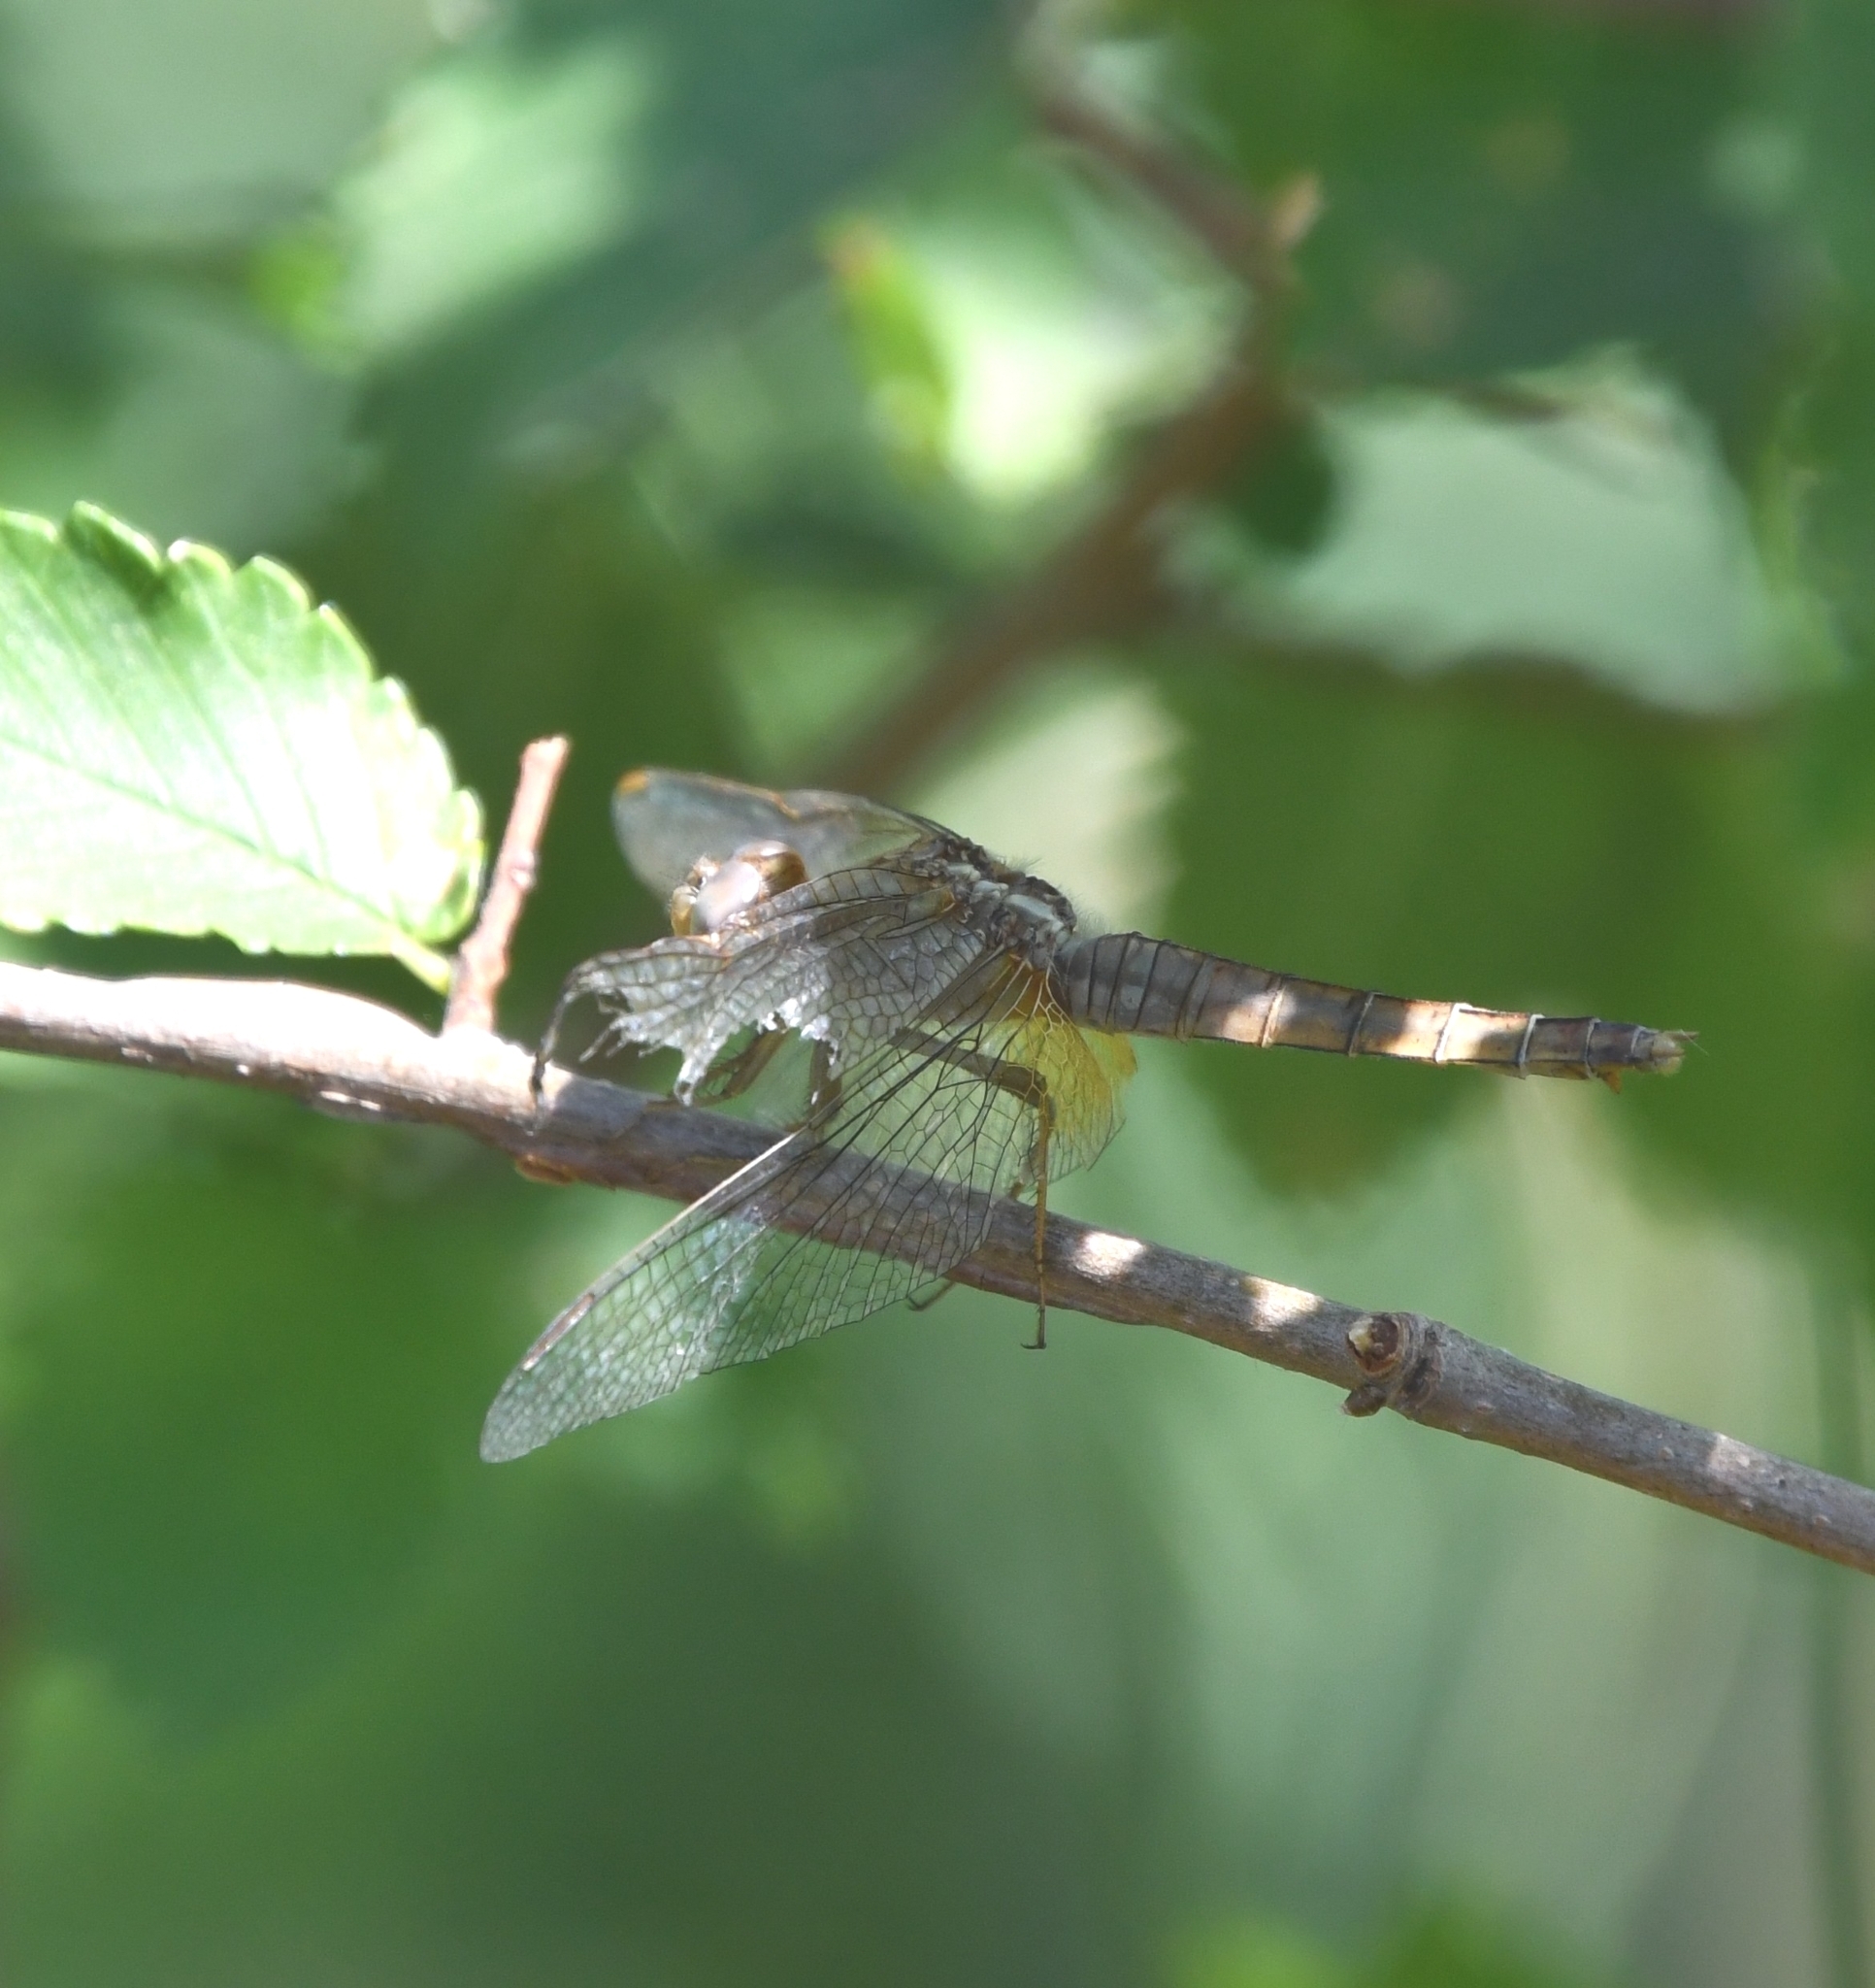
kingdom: Animalia
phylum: Arthropoda
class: Insecta
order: Odonata
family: Libellulidae
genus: Crocothemis
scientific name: Crocothemis erythraea
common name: Scarlet dragonfly
